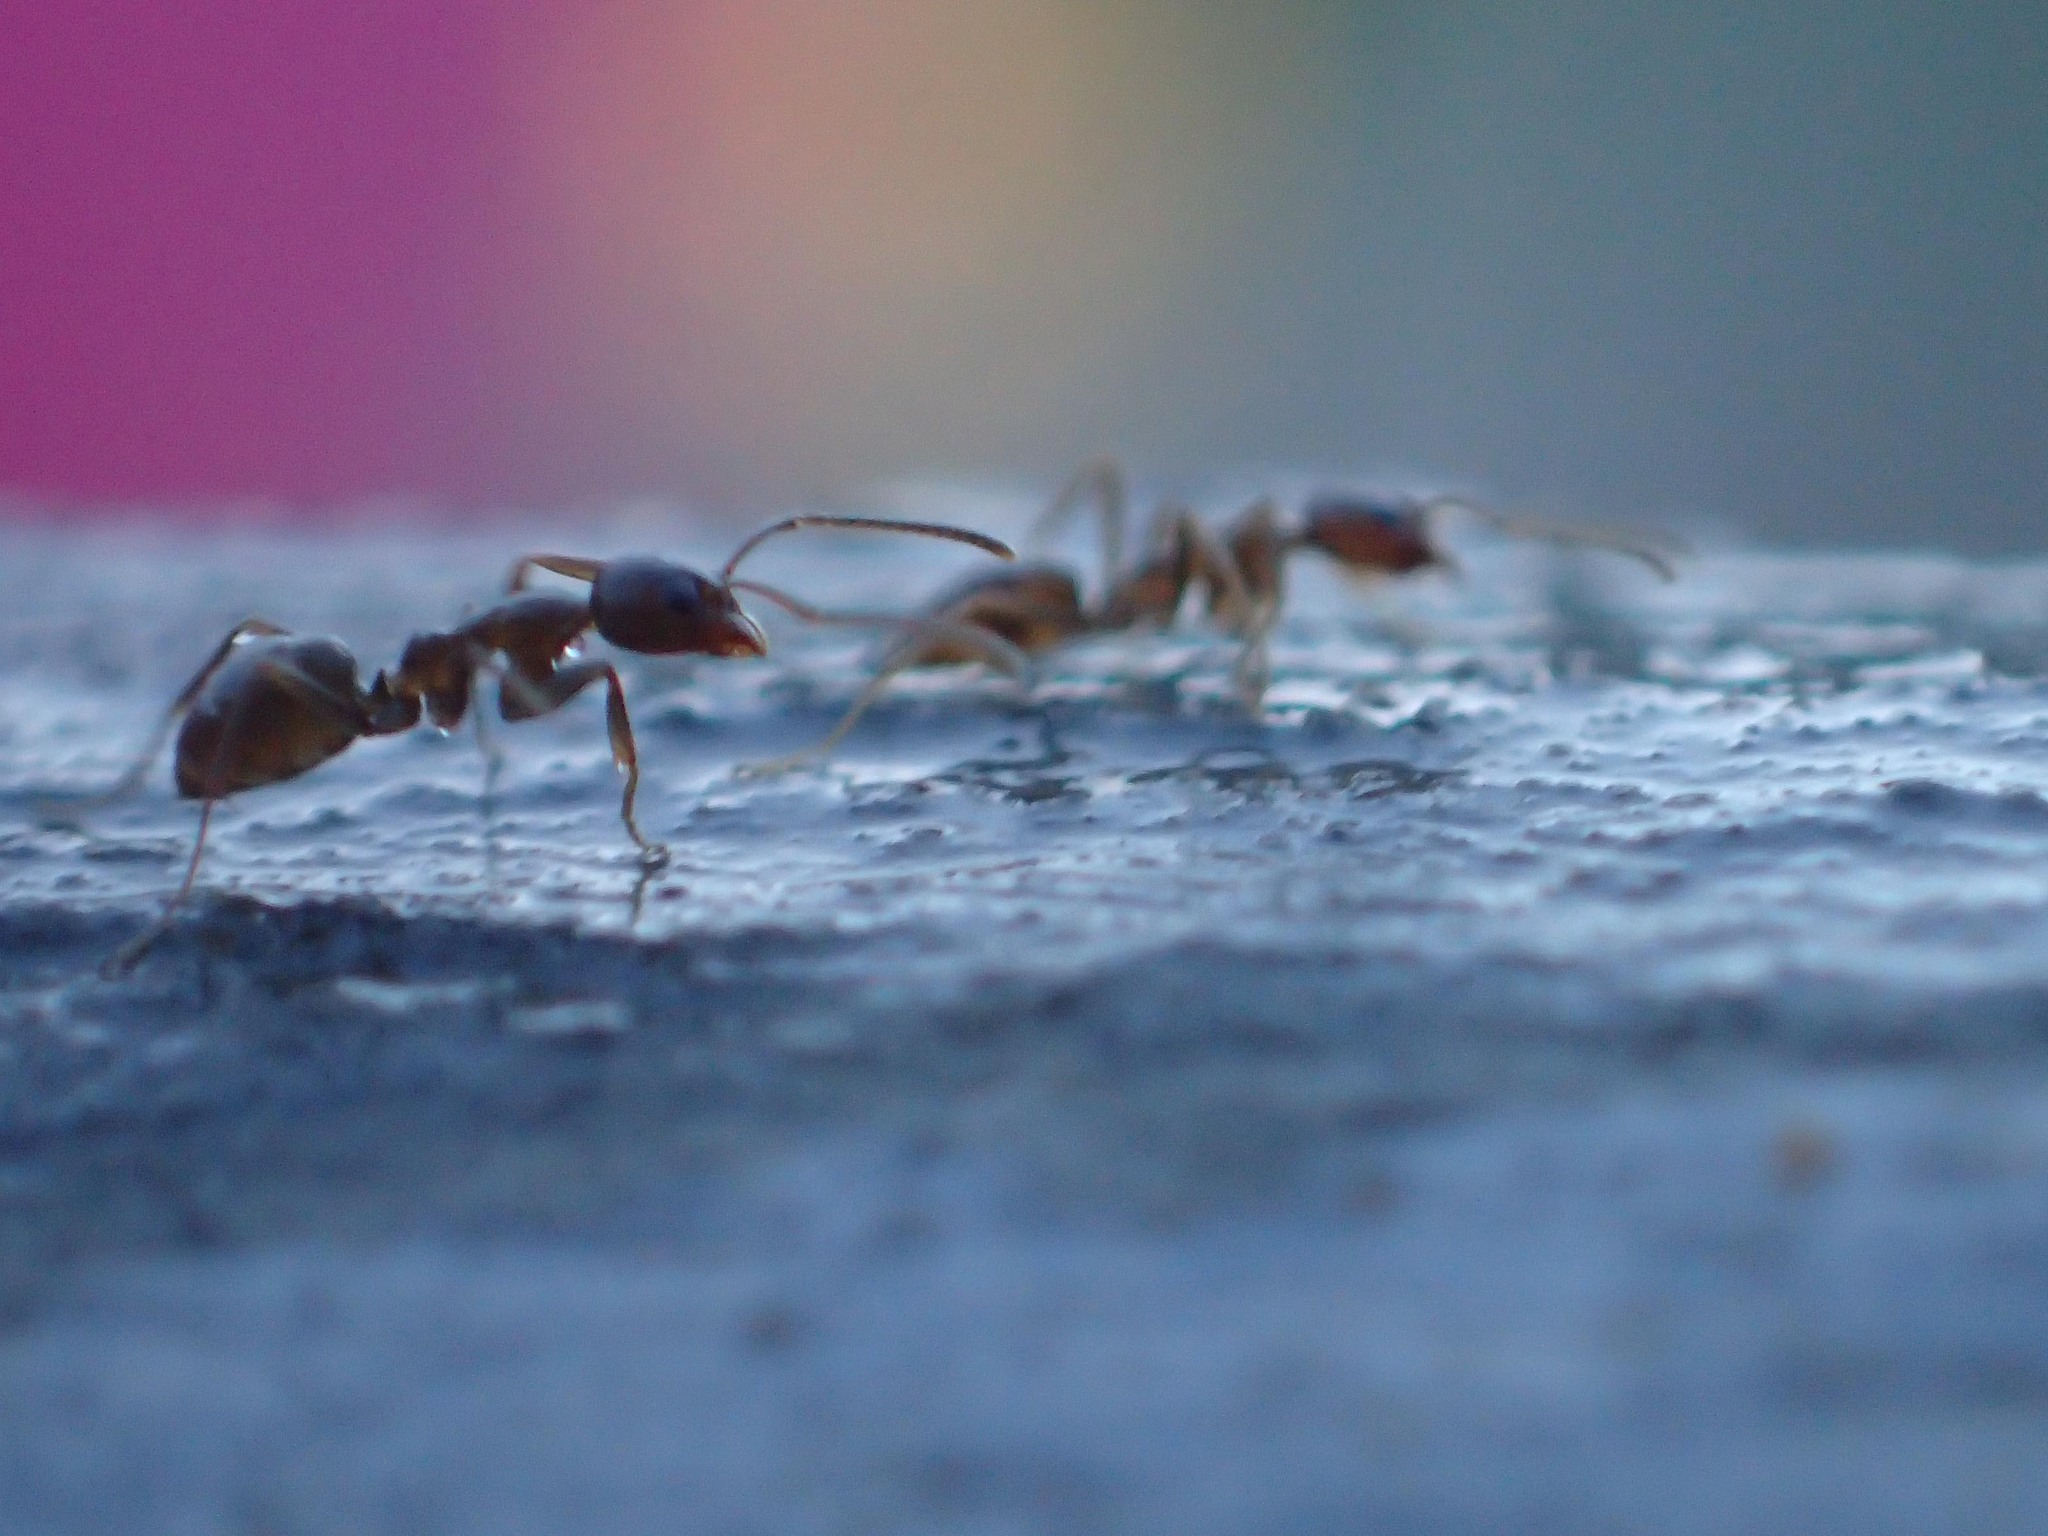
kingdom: Animalia
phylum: Arthropoda
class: Insecta
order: Hymenoptera
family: Formicidae
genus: Linepithema
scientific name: Linepithema humile
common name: Argentine ant
